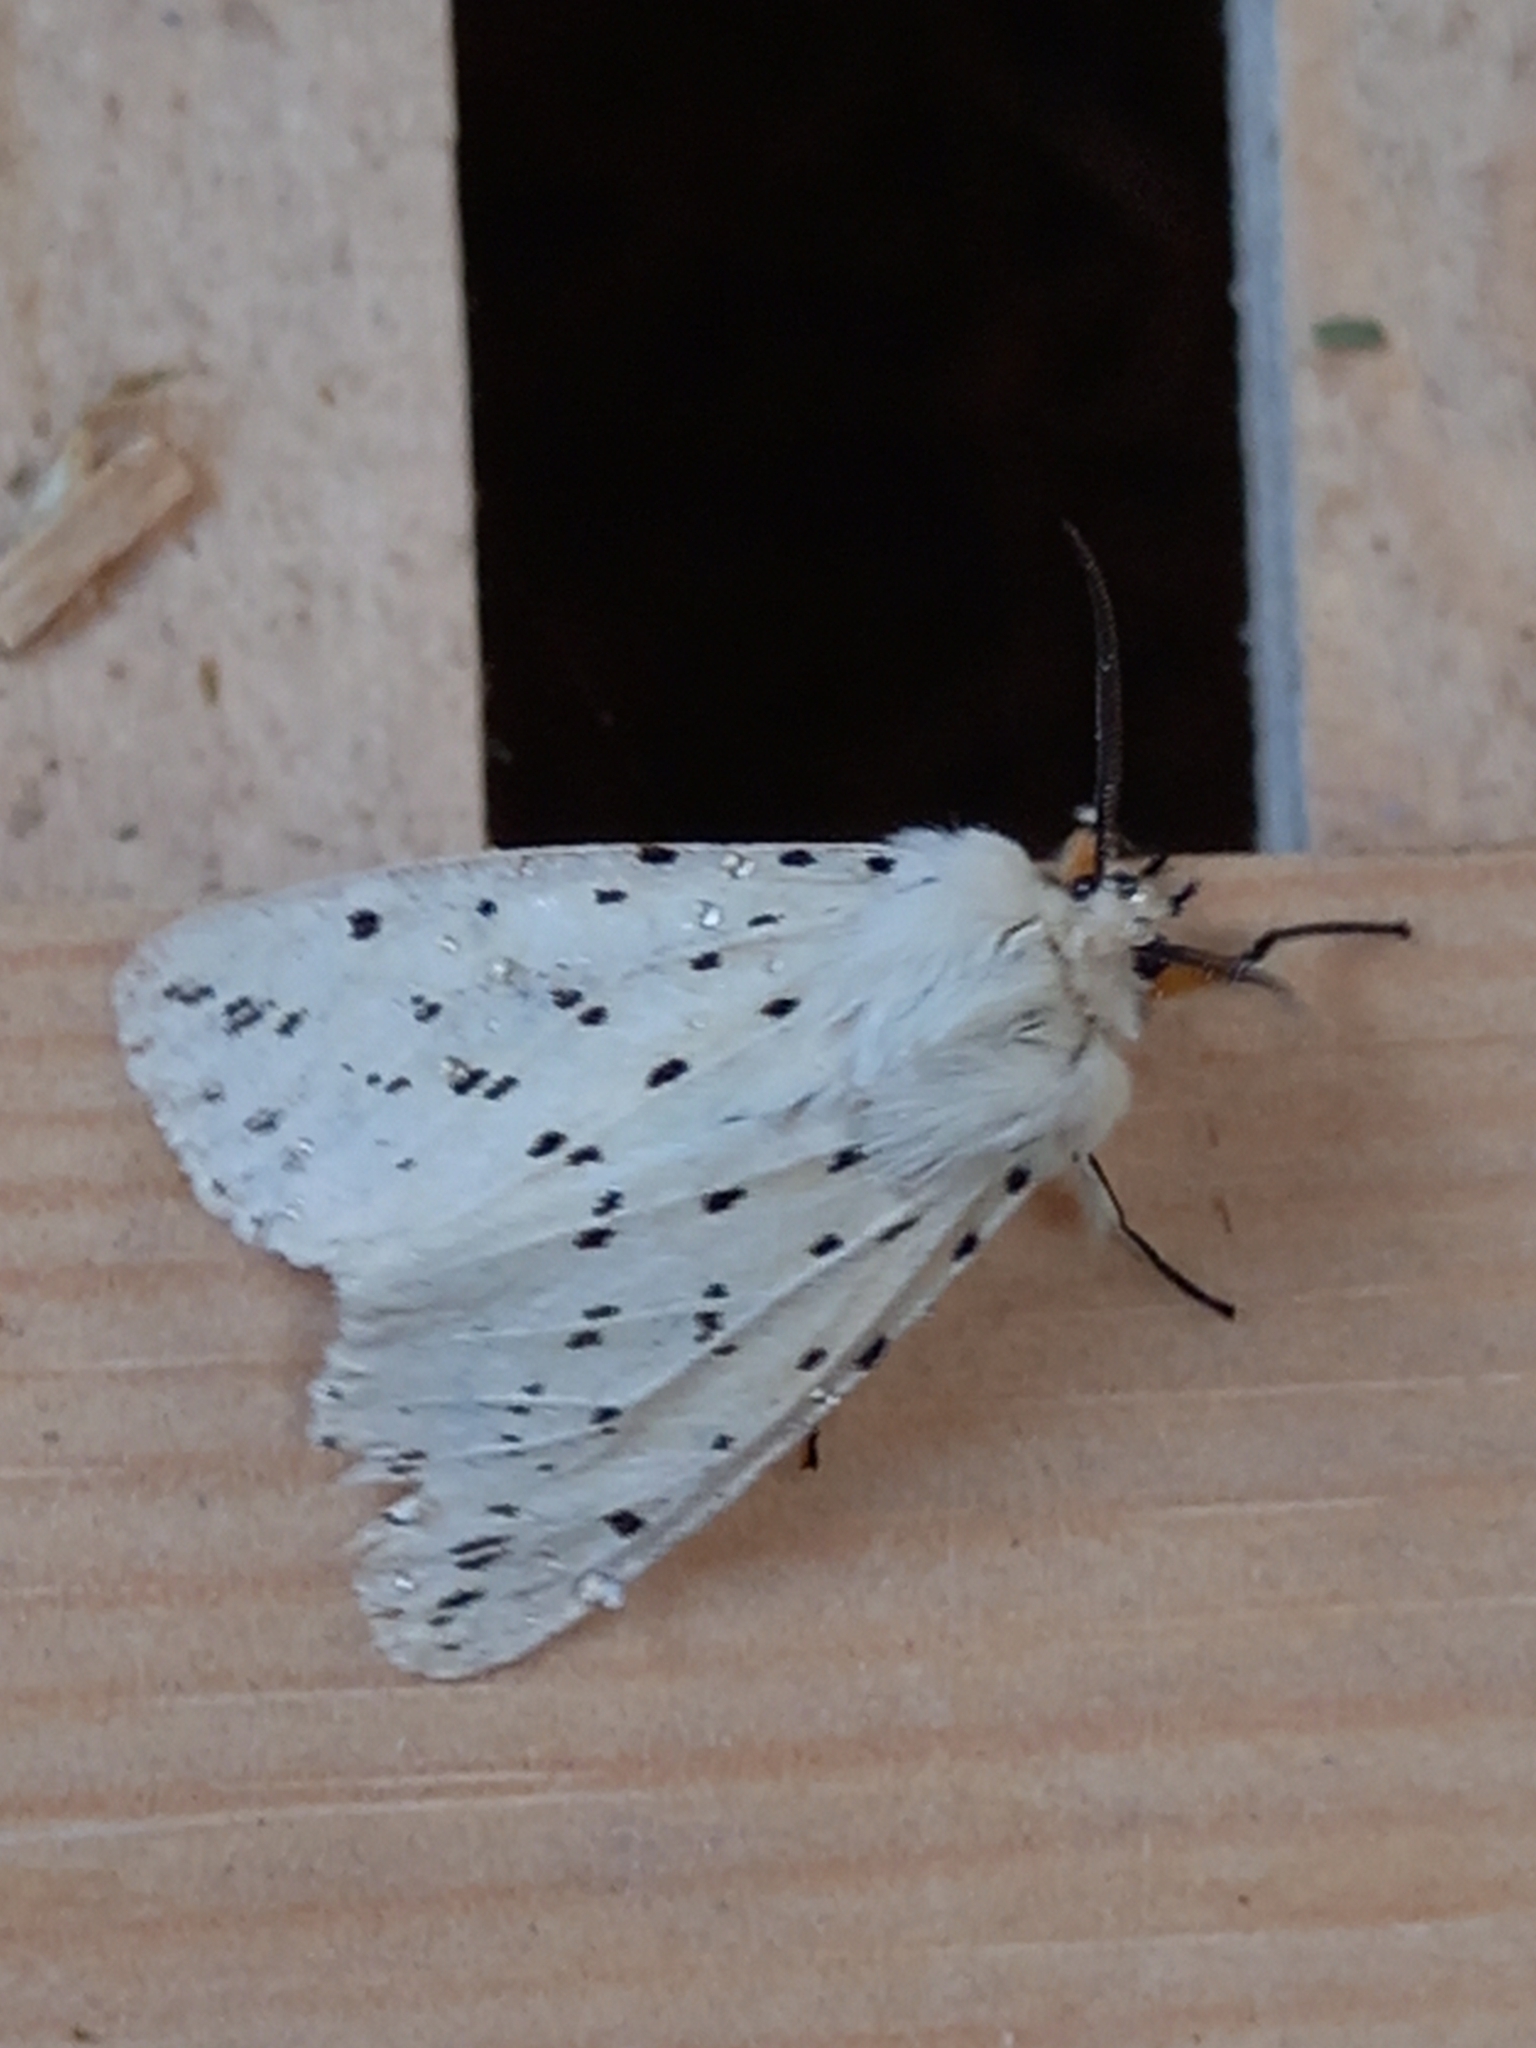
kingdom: Animalia
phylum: Arthropoda
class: Insecta
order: Lepidoptera
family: Erebidae
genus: Spilosoma
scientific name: Spilosoma lubricipeda
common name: White ermine
